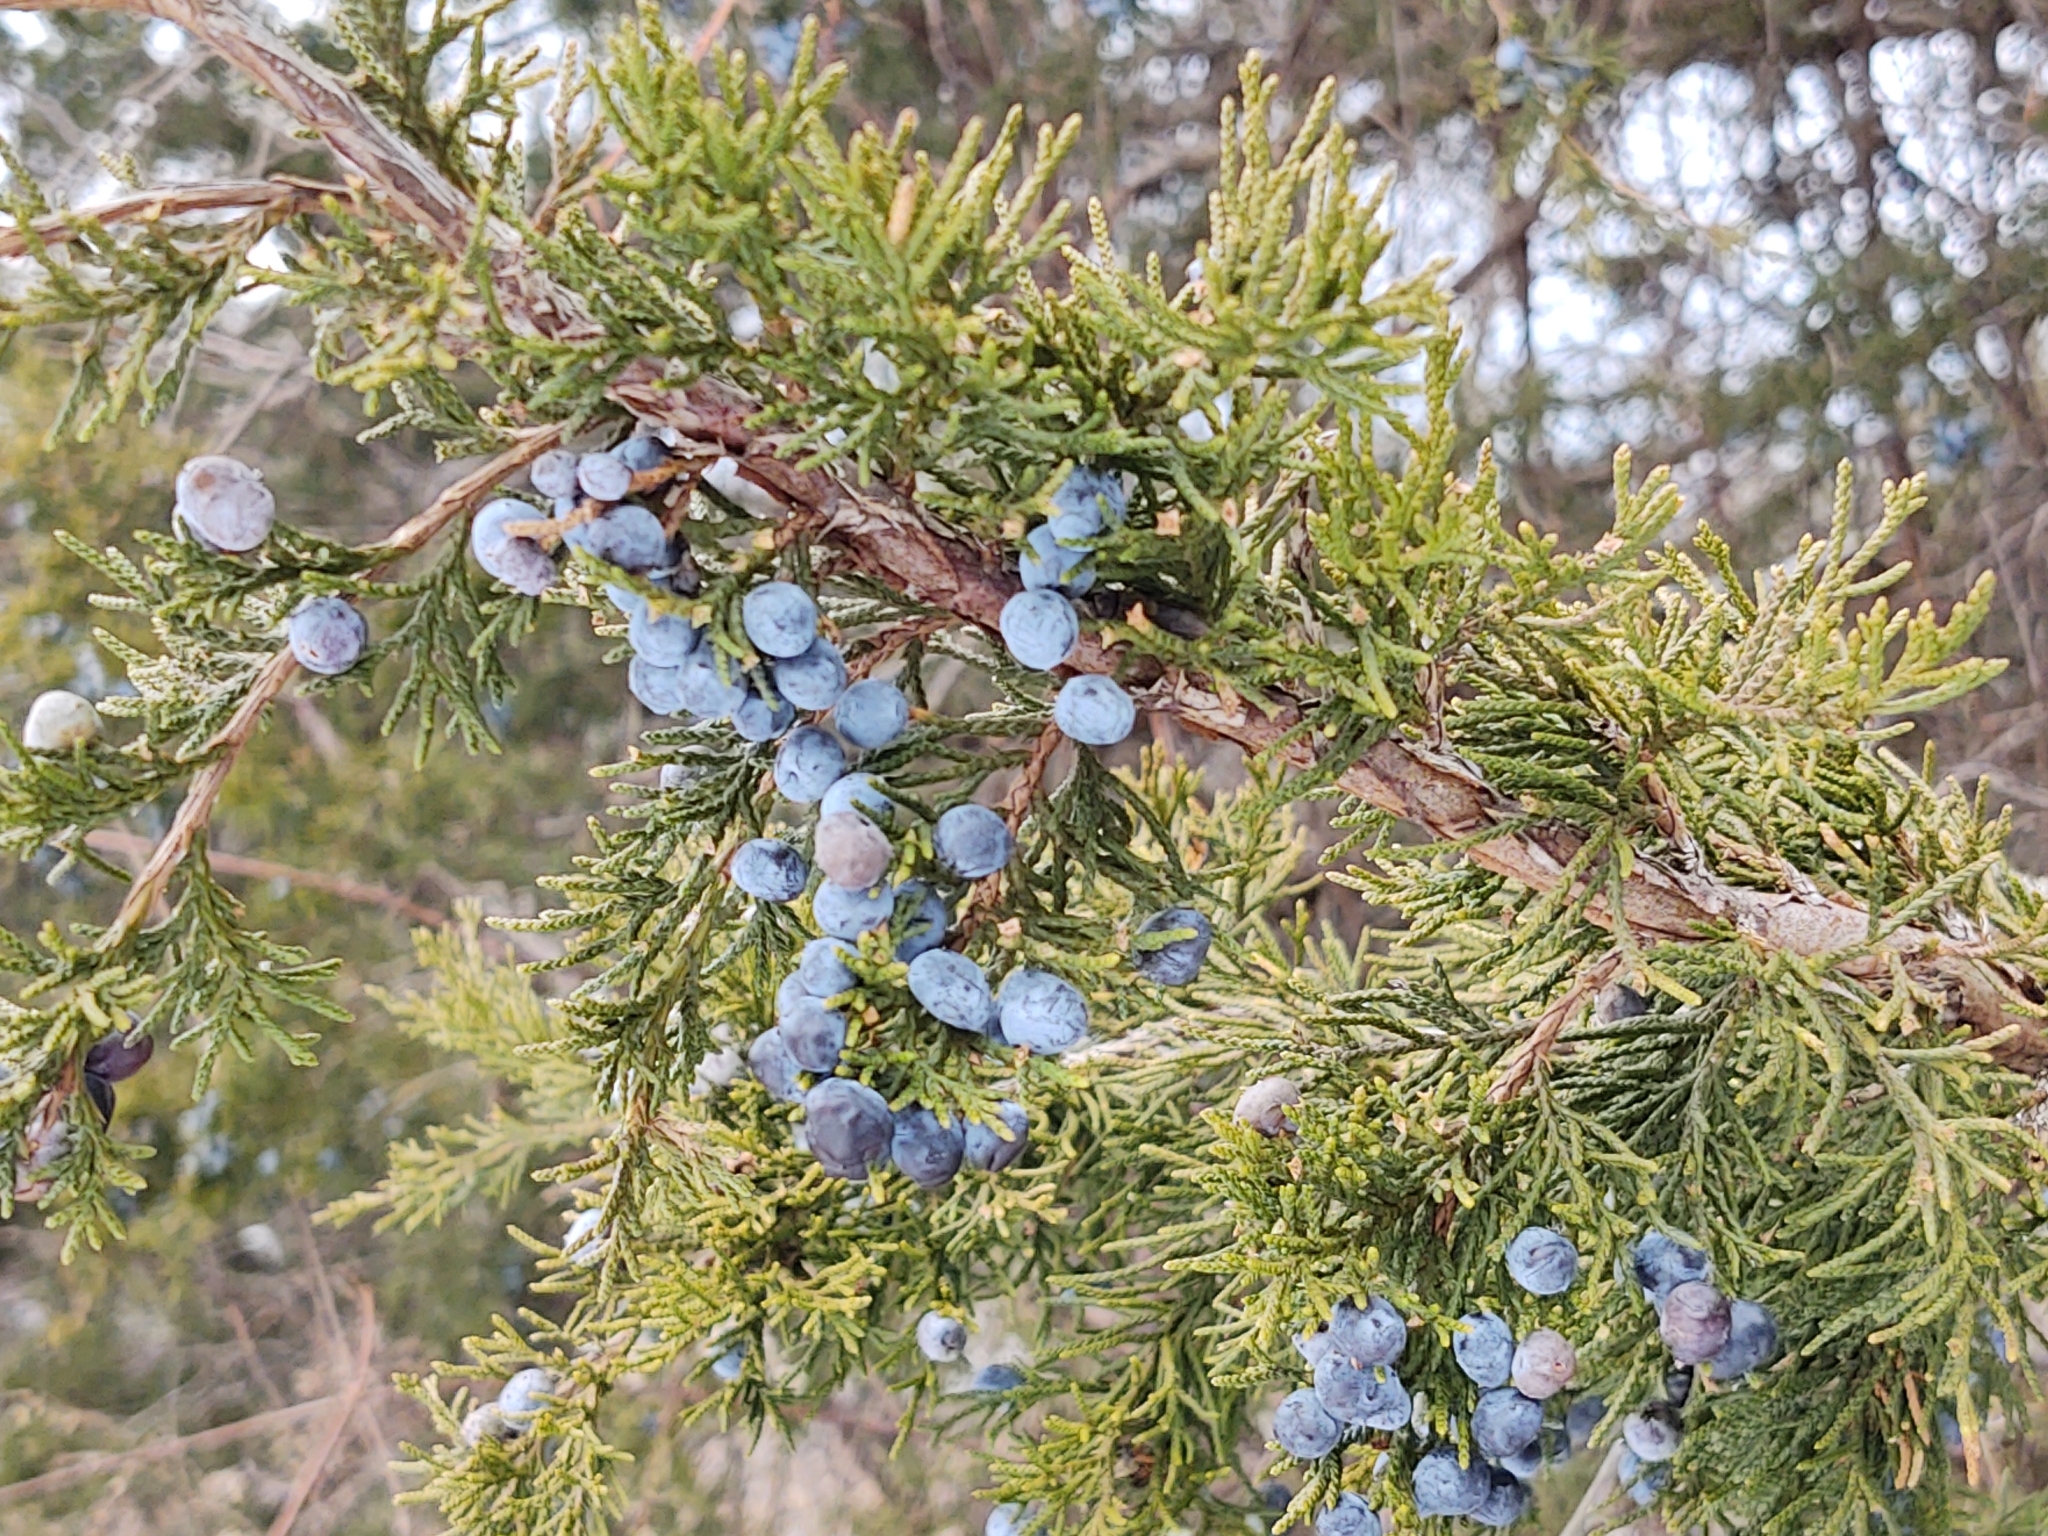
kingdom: Plantae
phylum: Tracheophyta
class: Pinopsida
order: Pinales
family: Cupressaceae
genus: Juniperus
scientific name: Juniperus virginiana
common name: Red juniper
